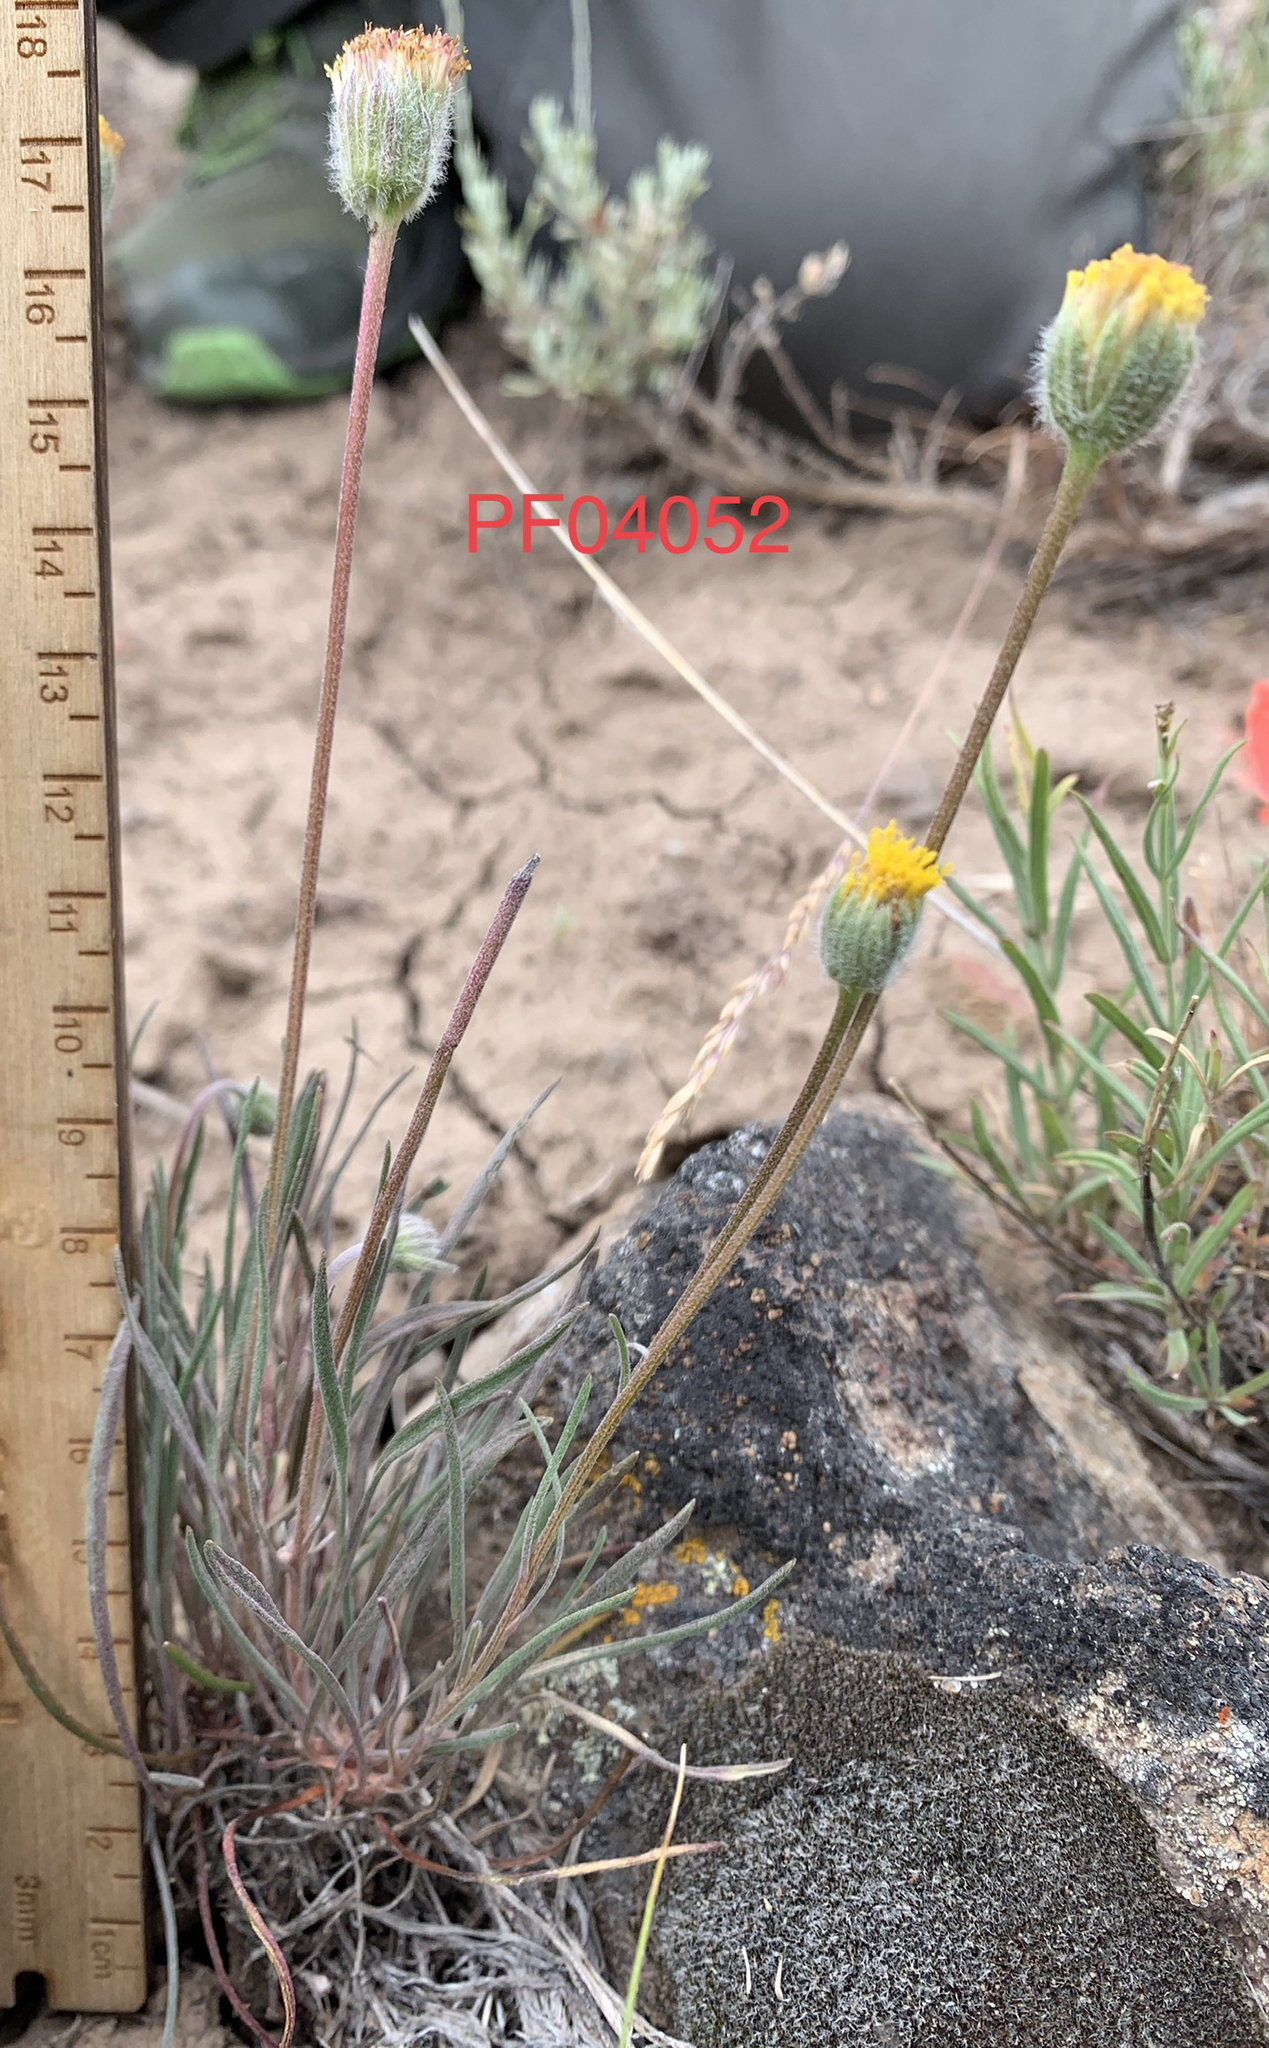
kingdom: Plantae
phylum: Tracheophyta
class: Magnoliopsida
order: Asterales
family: Asteraceae
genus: Erigeron
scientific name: Erigeron bloomeri
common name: Bloomer's fleabane
